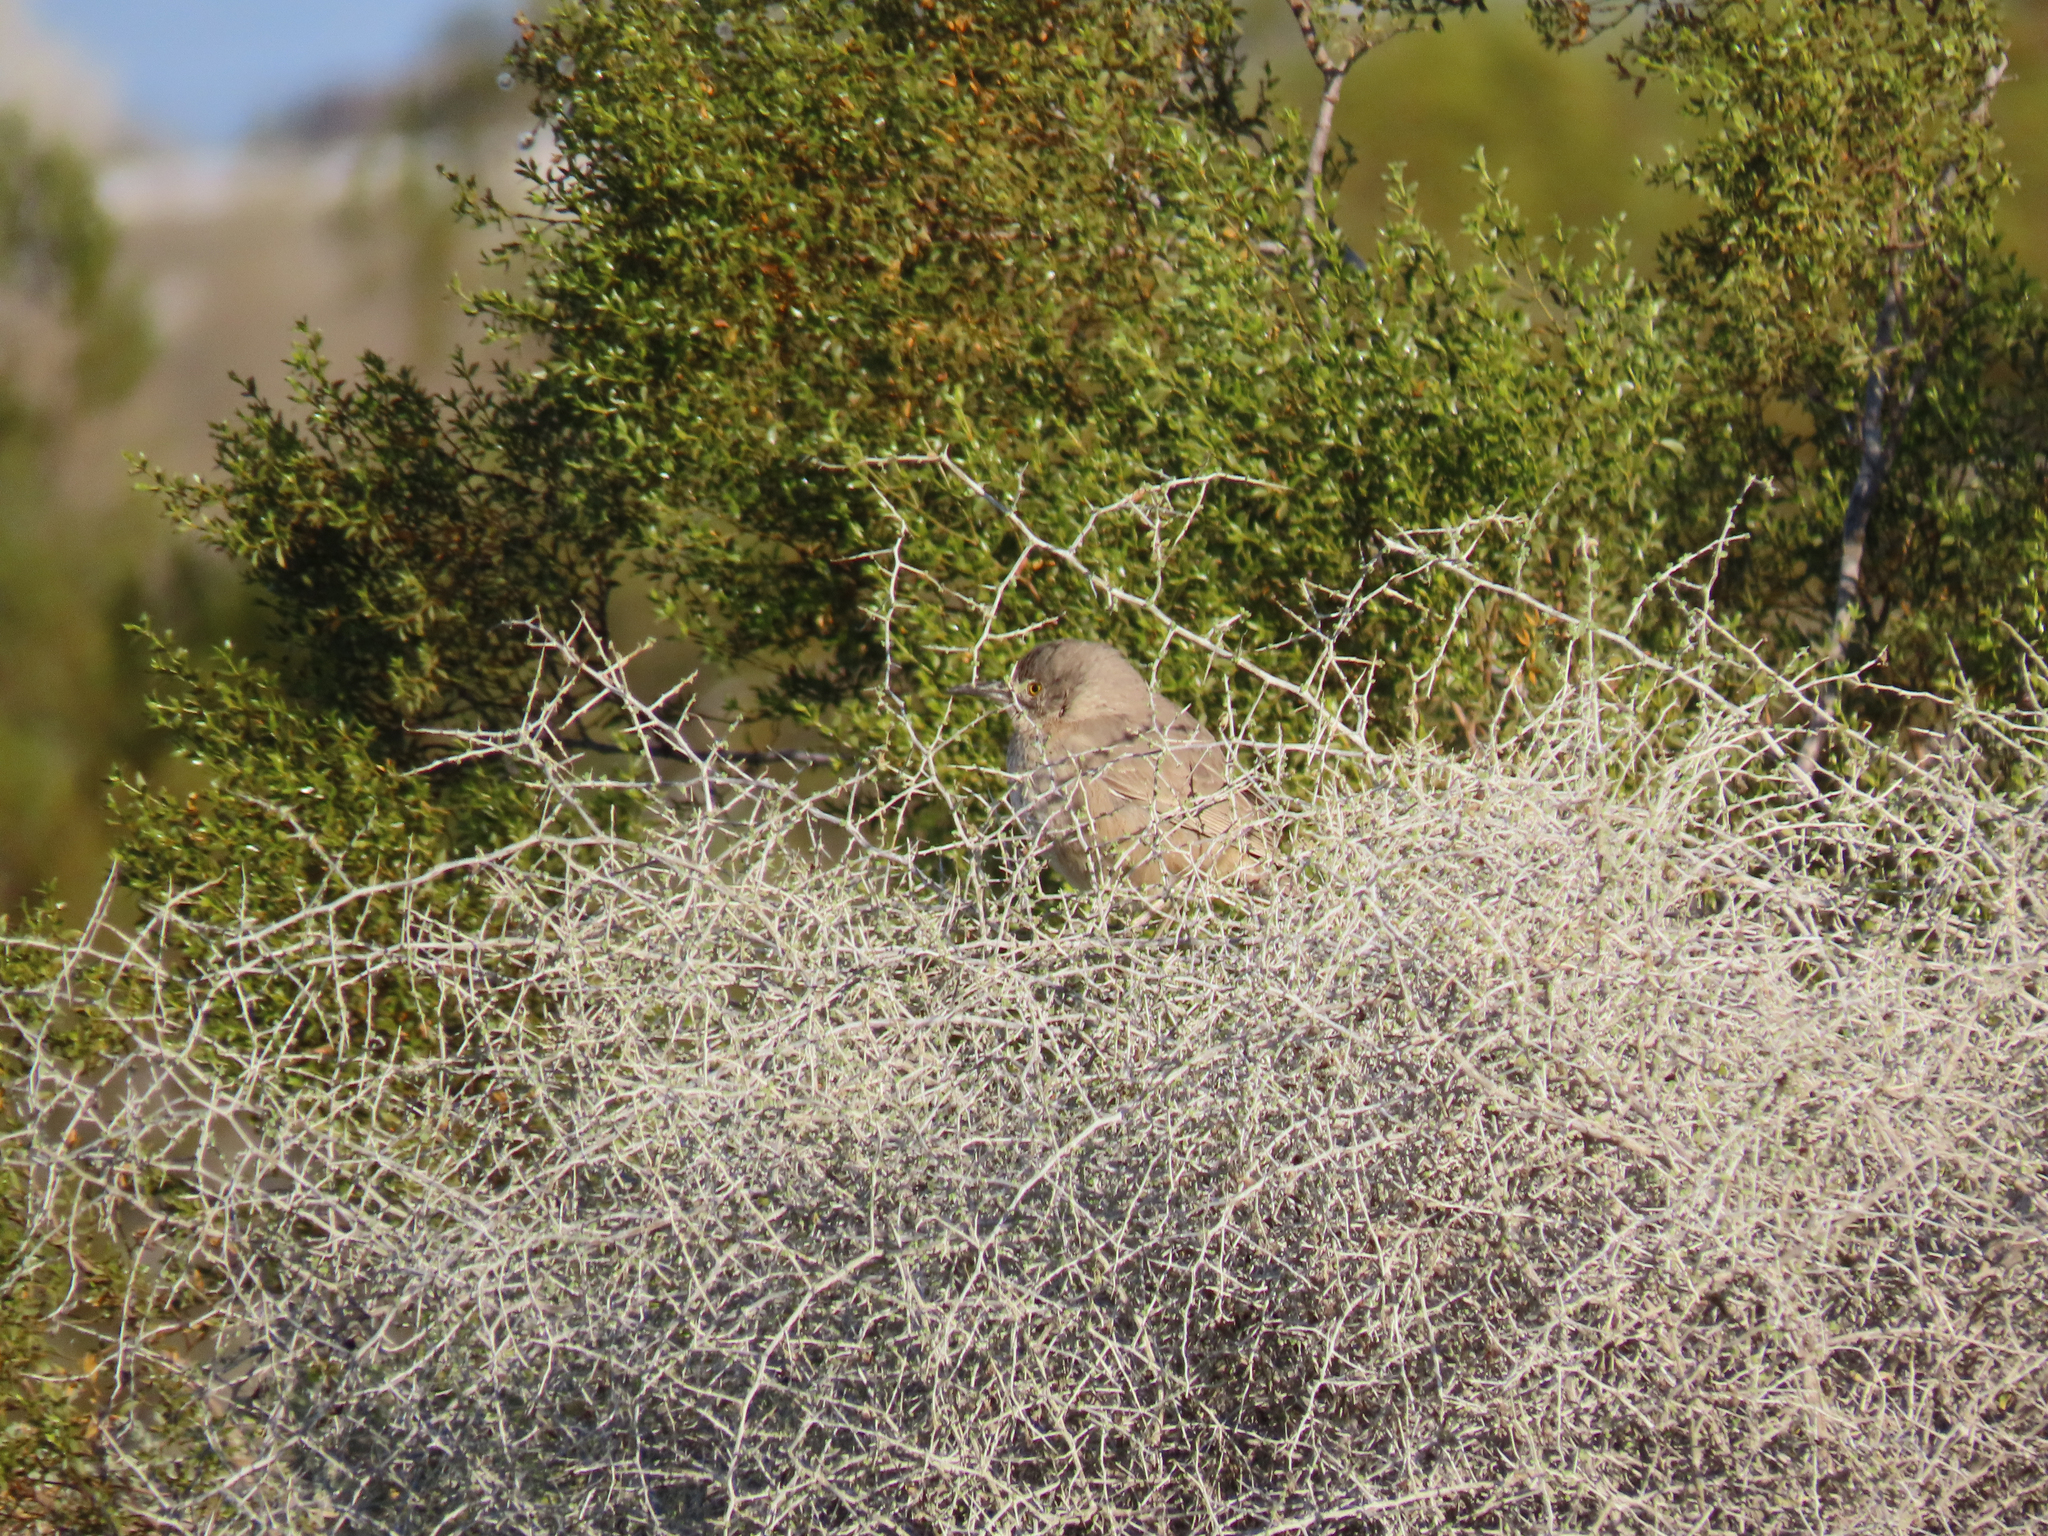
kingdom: Animalia
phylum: Chordata
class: Aves
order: Passeriformes
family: Mimidae
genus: Toxostoma
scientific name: Toxostoma bendirei
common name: Bendire's thrasher
